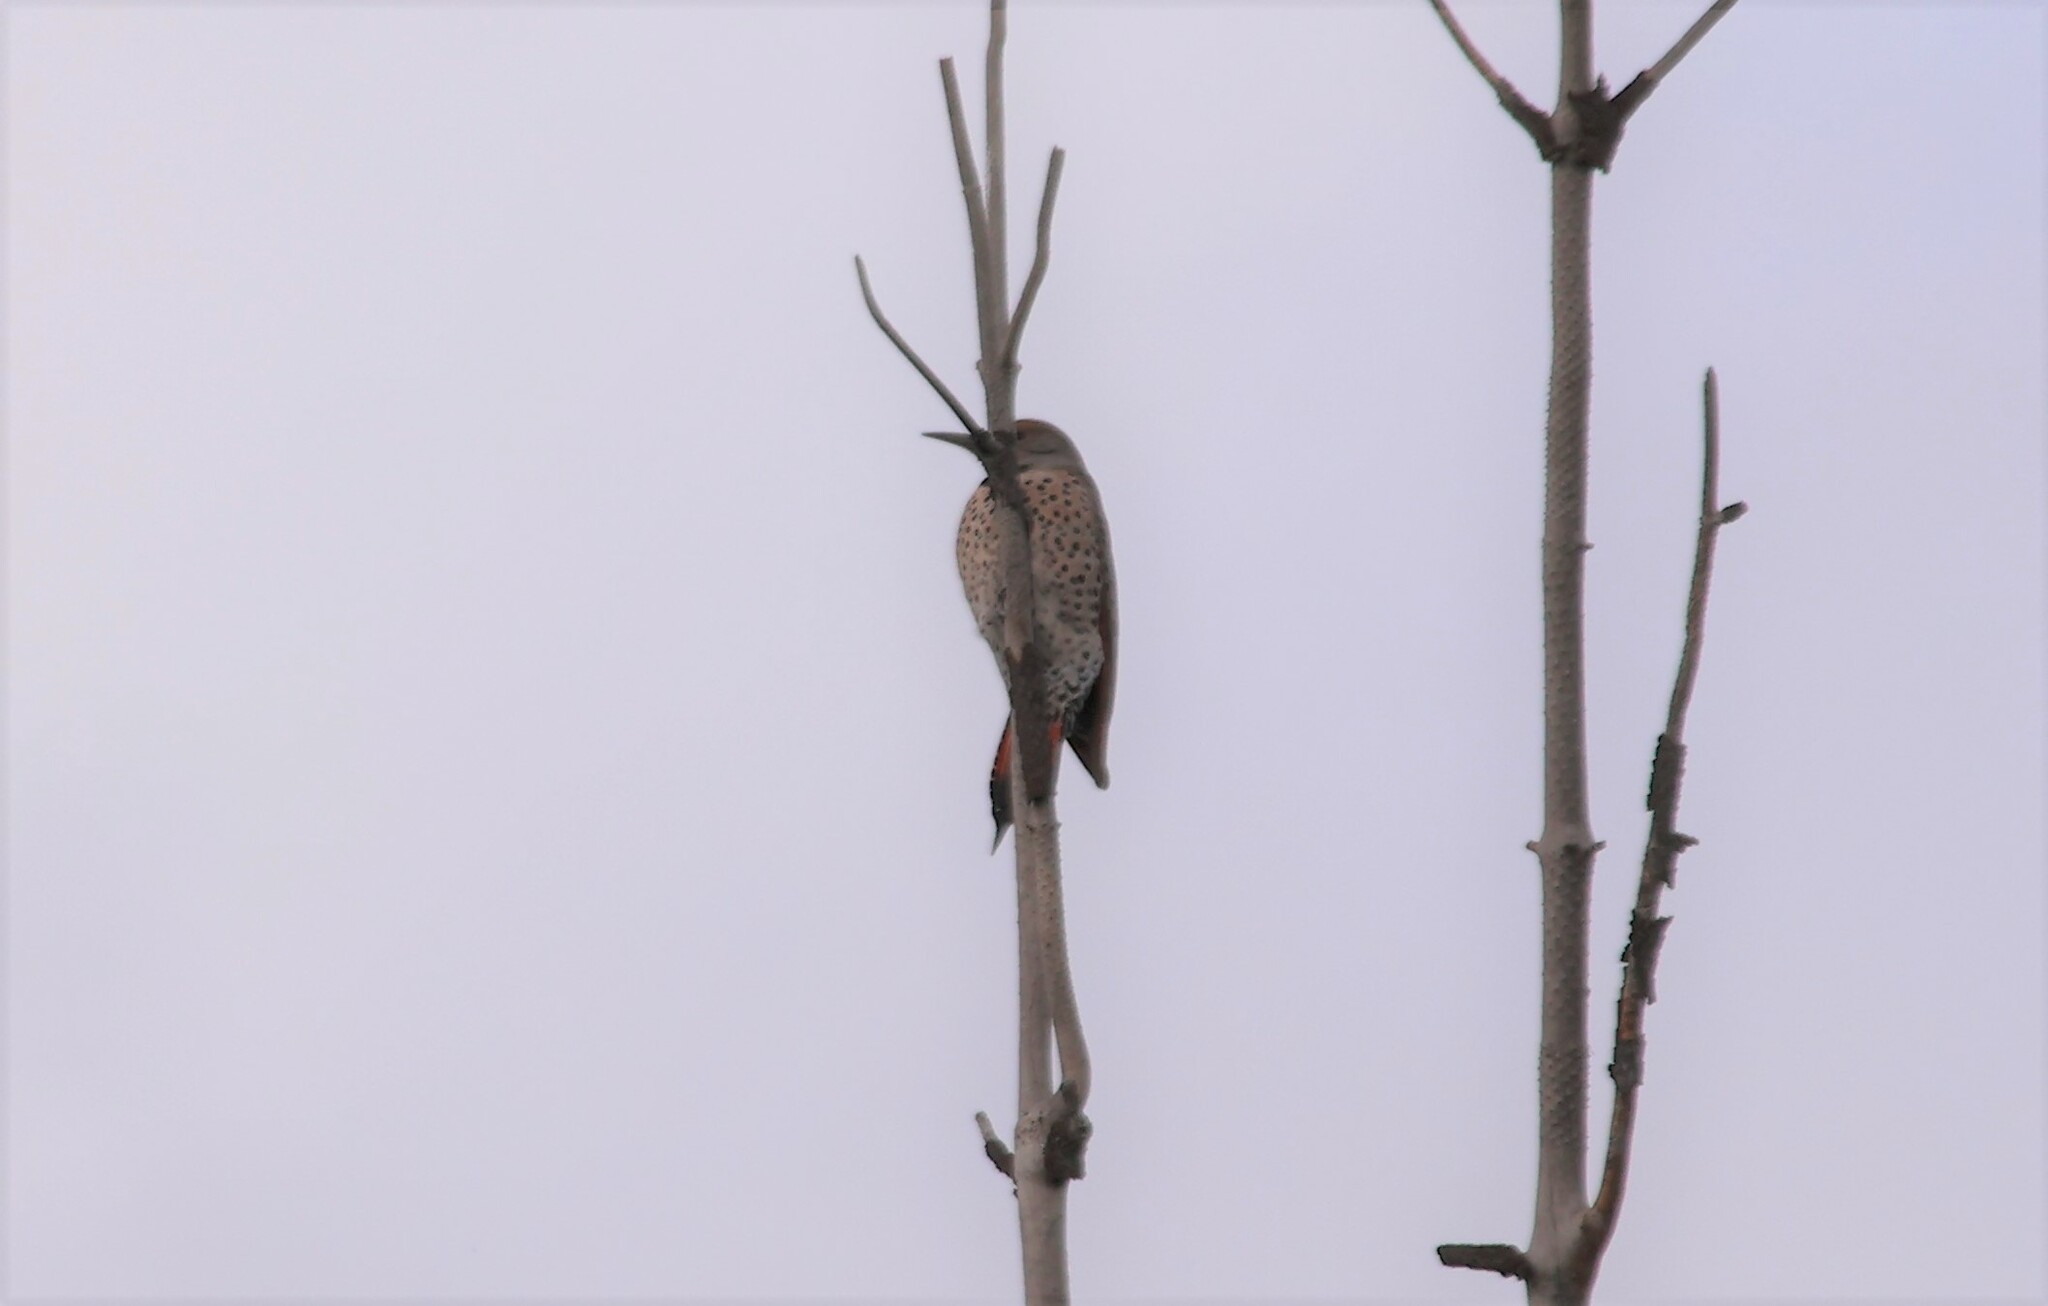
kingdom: Animalia
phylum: Chordata
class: Aves
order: Piciformes
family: Picidae
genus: Colaptes
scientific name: Colaptes auratus
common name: Northern flicker
